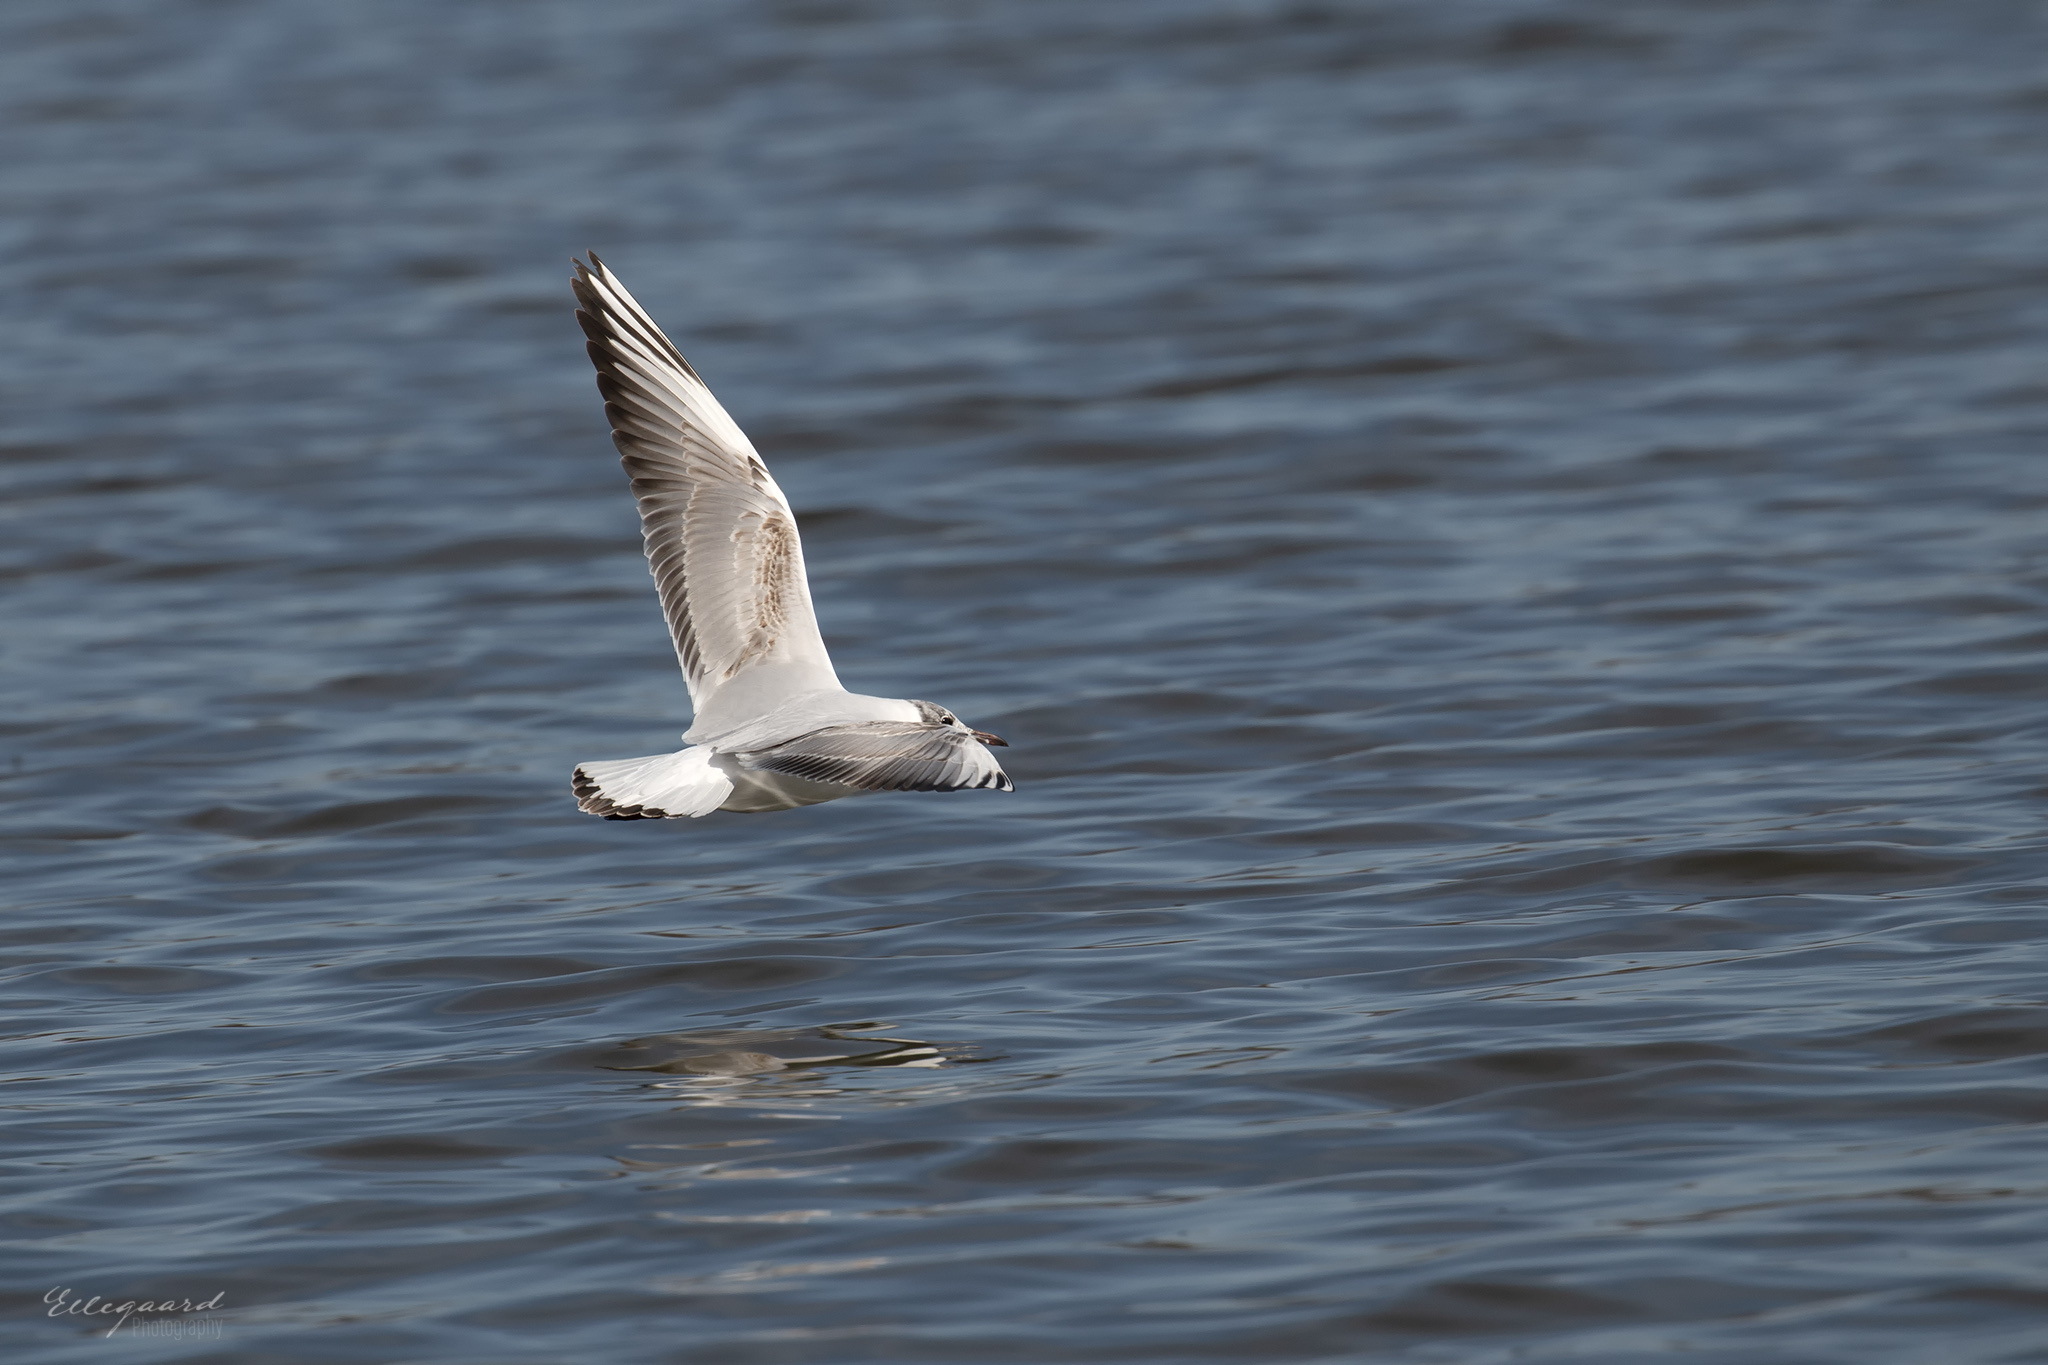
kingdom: Animalia
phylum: Chordata
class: Aves
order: Charadriiformes
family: Laridae
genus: Chroicocephalus
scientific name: Chroicocephalus ridibundus
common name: Black-headed gull
